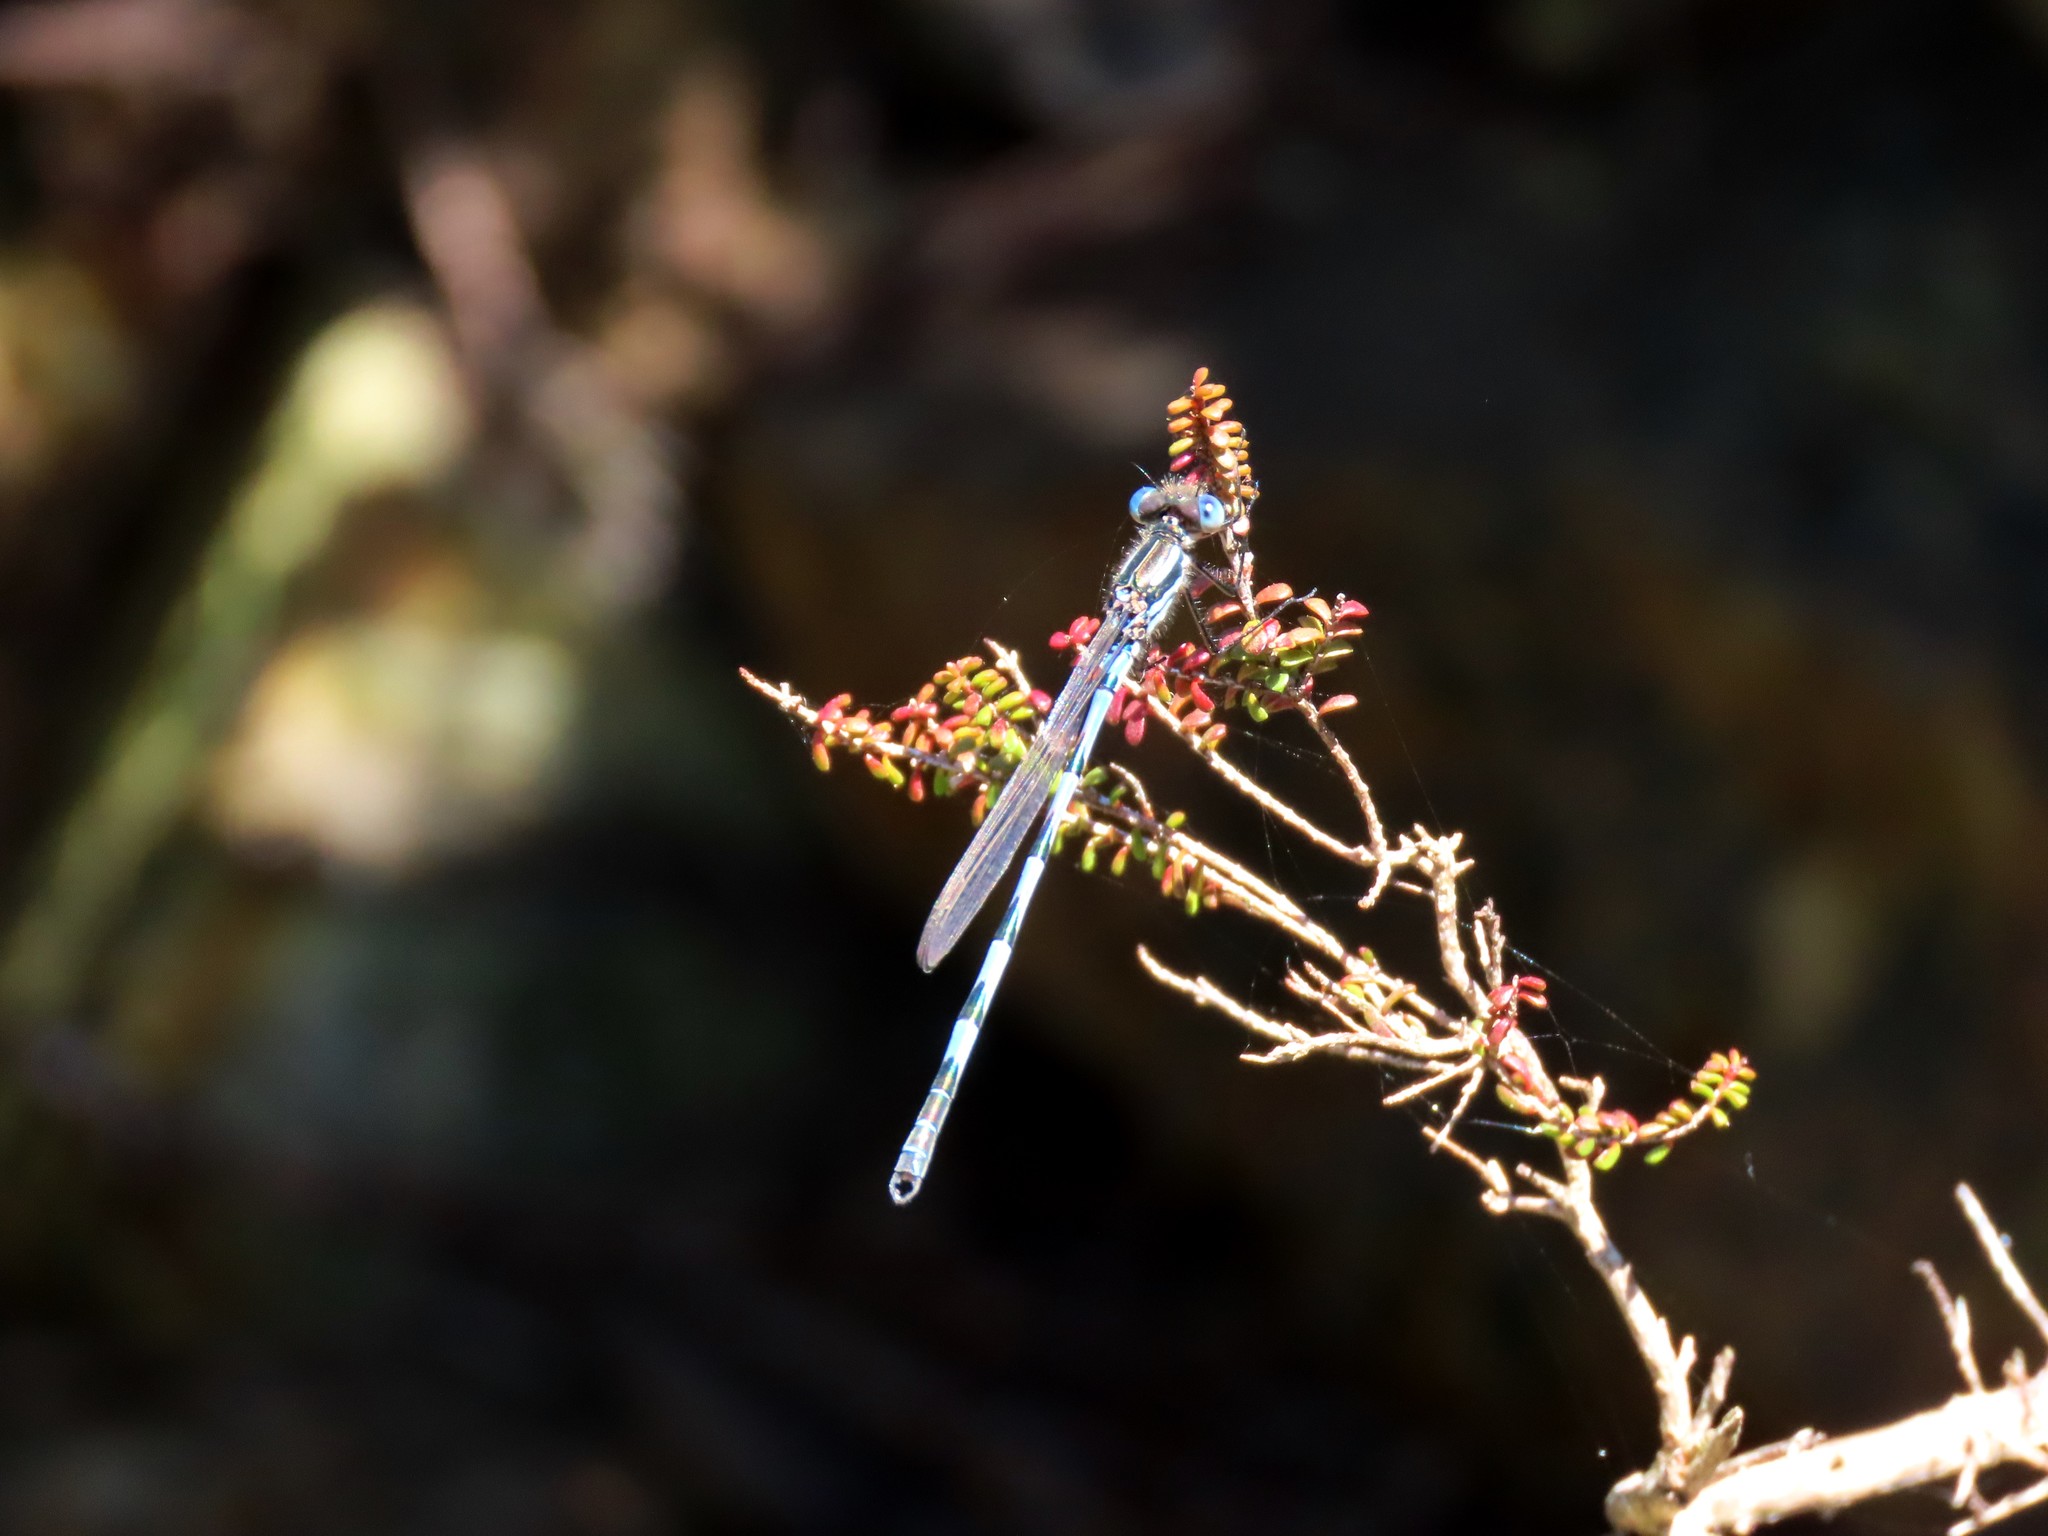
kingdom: Animalia
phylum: Arthropoda
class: Insecta
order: Odonata
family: Lestidae
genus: Austrolestes
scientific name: Austrolestes annulosus
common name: Blue ringtail
